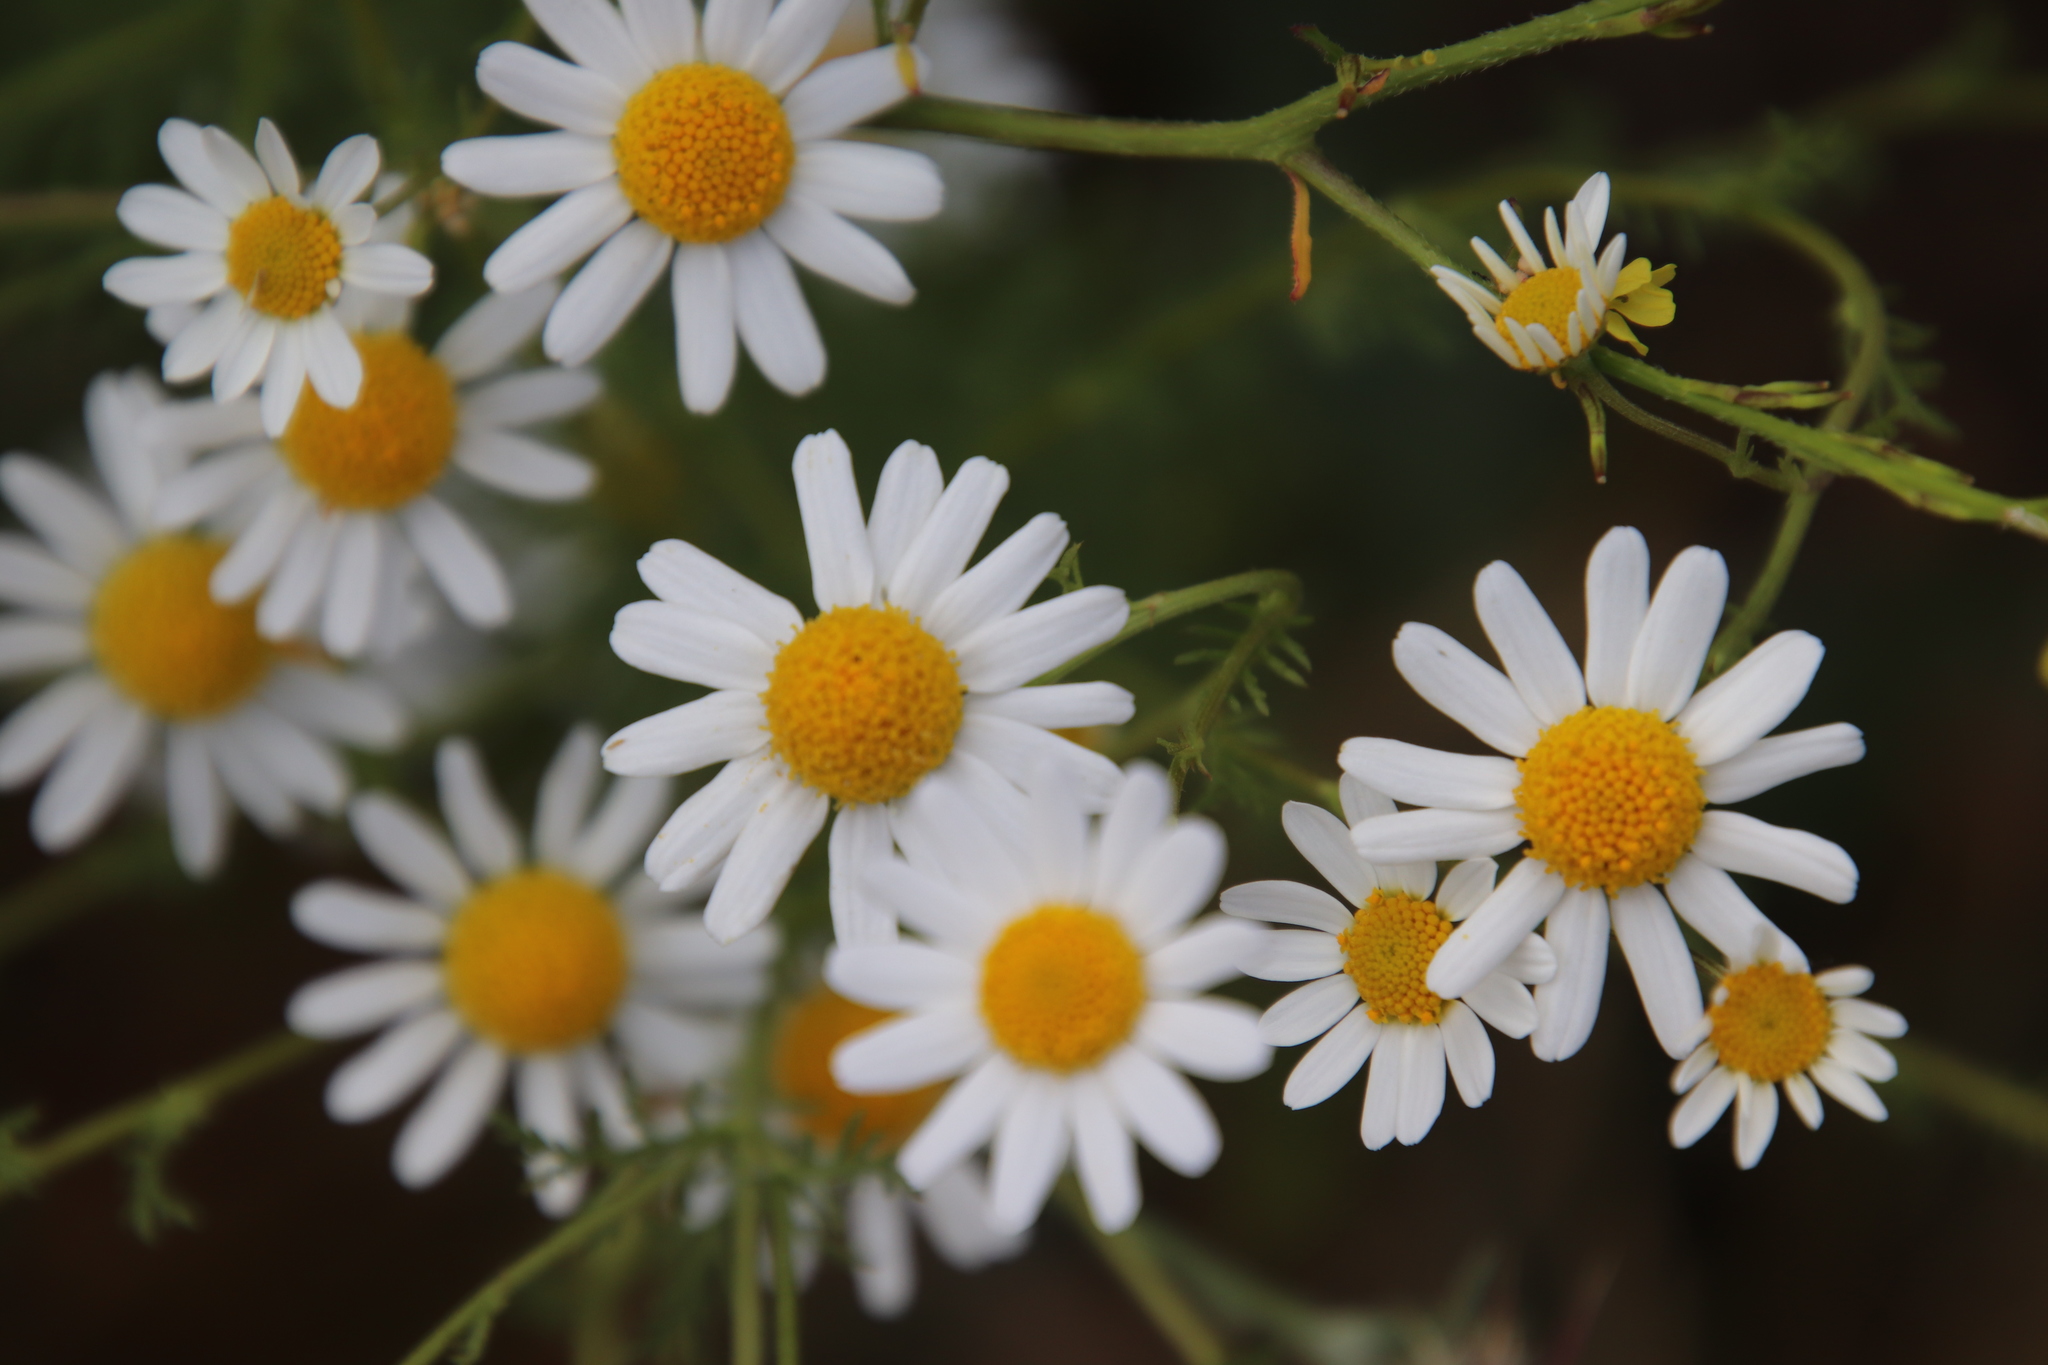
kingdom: Plantae
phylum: Tracheophyta
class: Magnoliopsida
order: Asterales
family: Asteraceae
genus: Anthemis
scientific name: Anthemis cotula
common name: Stinking chamomile
